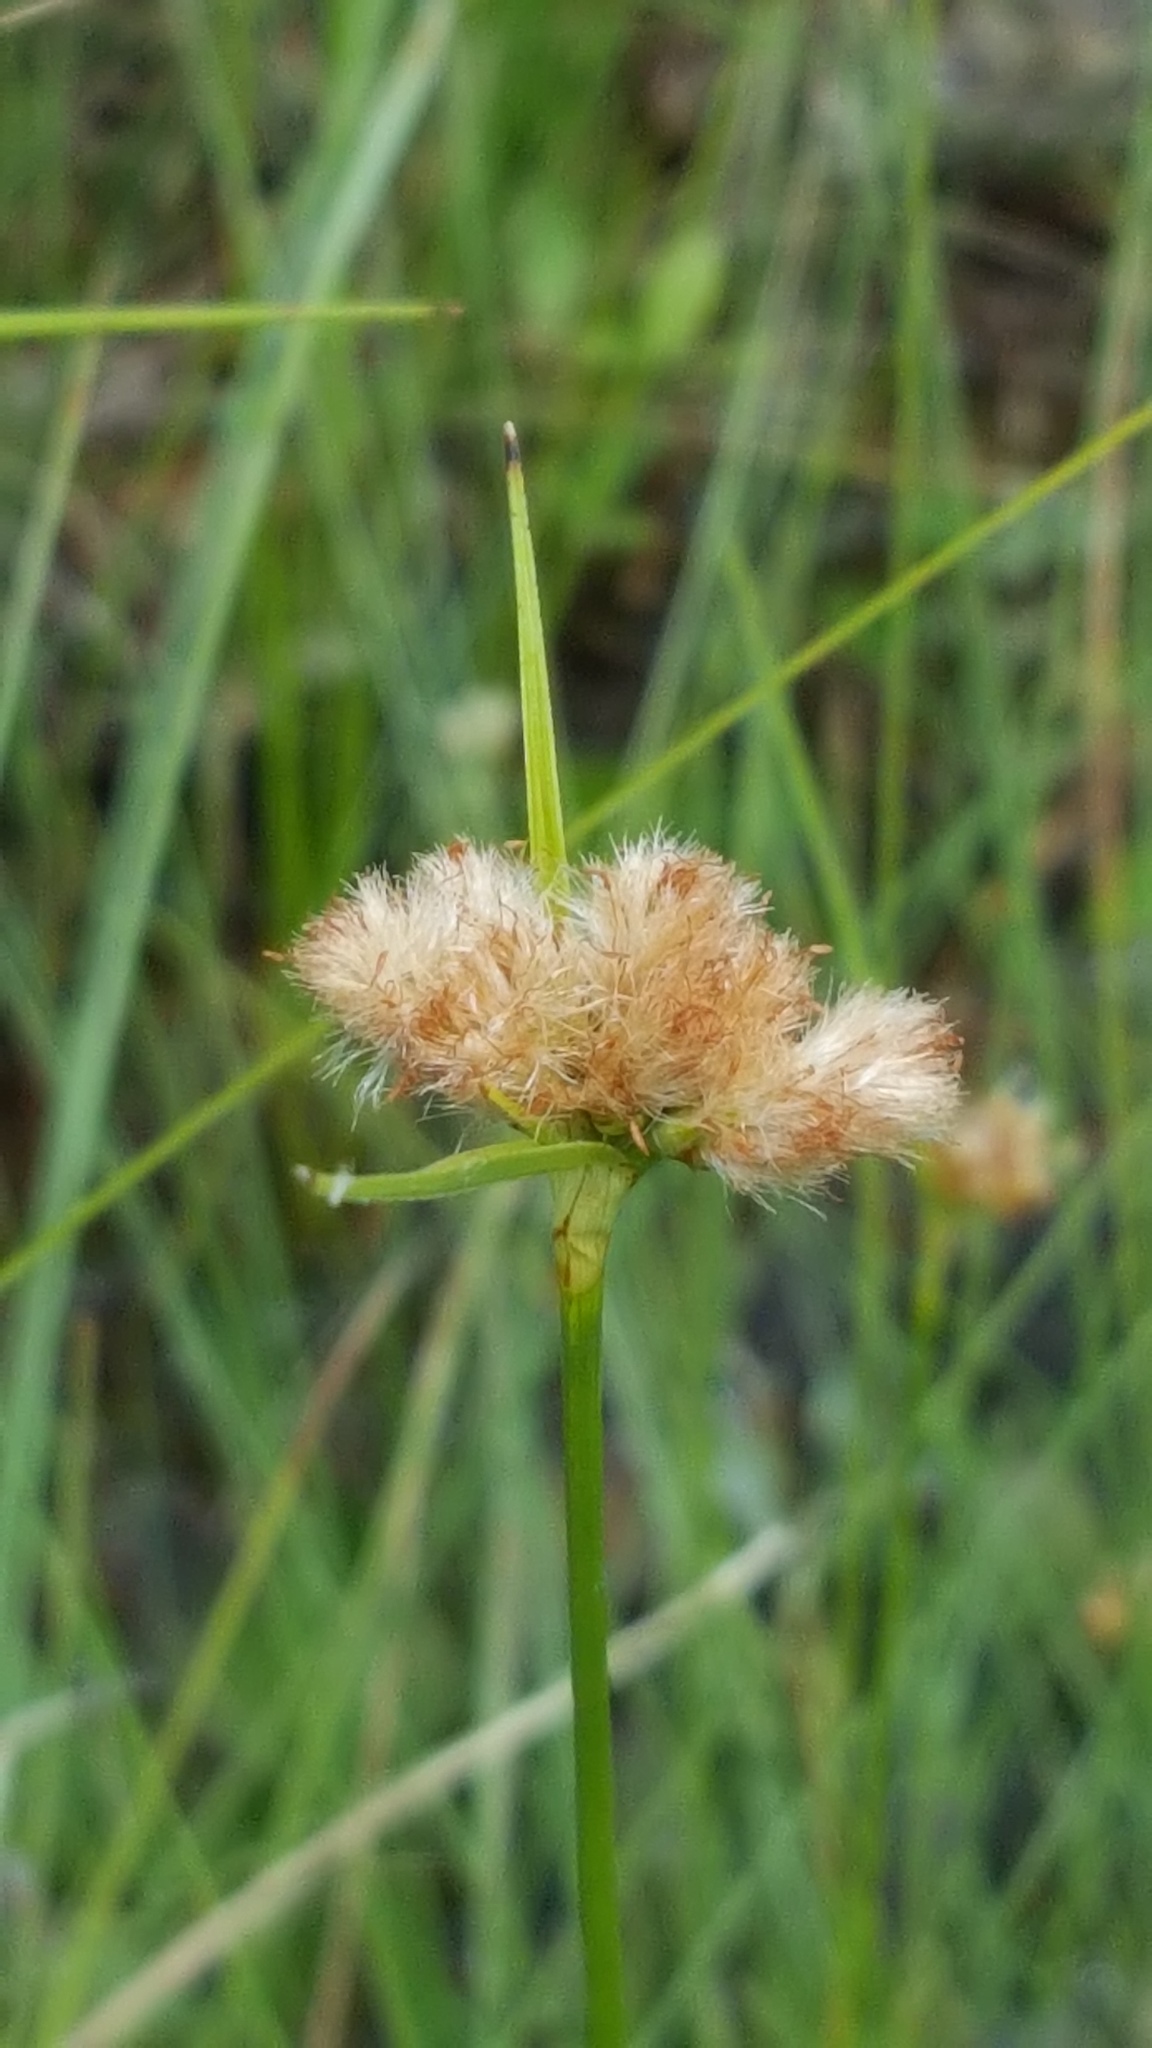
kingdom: Plantae
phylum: Tracheophyta
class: Liliopsida
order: Poales
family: Cyperaceae
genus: Eriophorum
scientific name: Eriophorum virginicum
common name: Tawny cottongrass
